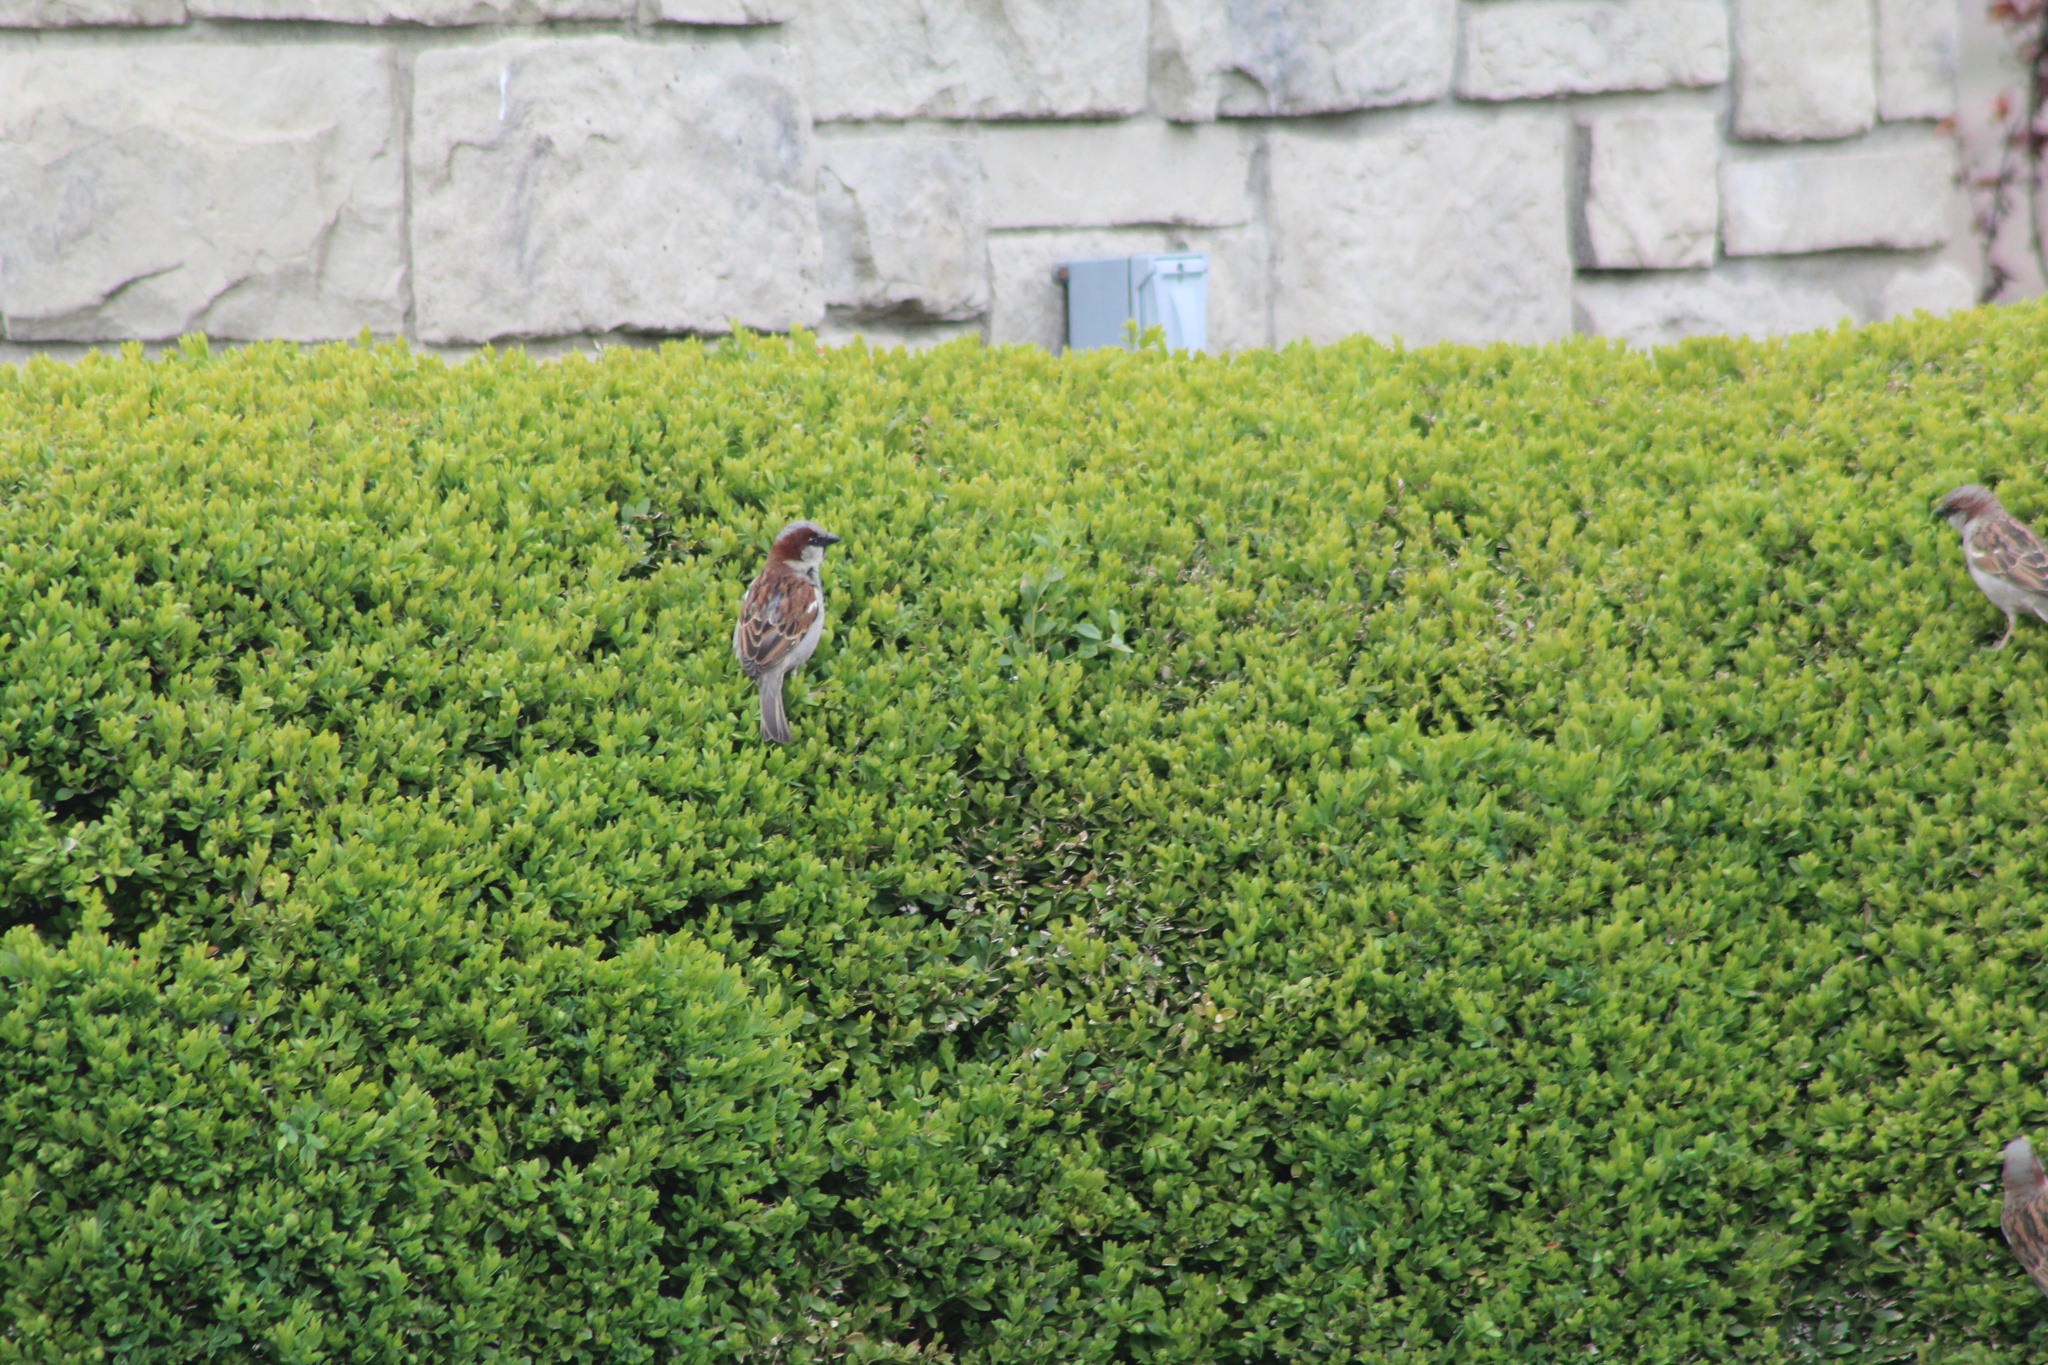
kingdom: Animalia
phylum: Chordata
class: Aves
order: Passeriformes
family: Passeridae
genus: Passer
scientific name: Passer domesticus
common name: House sparrow
